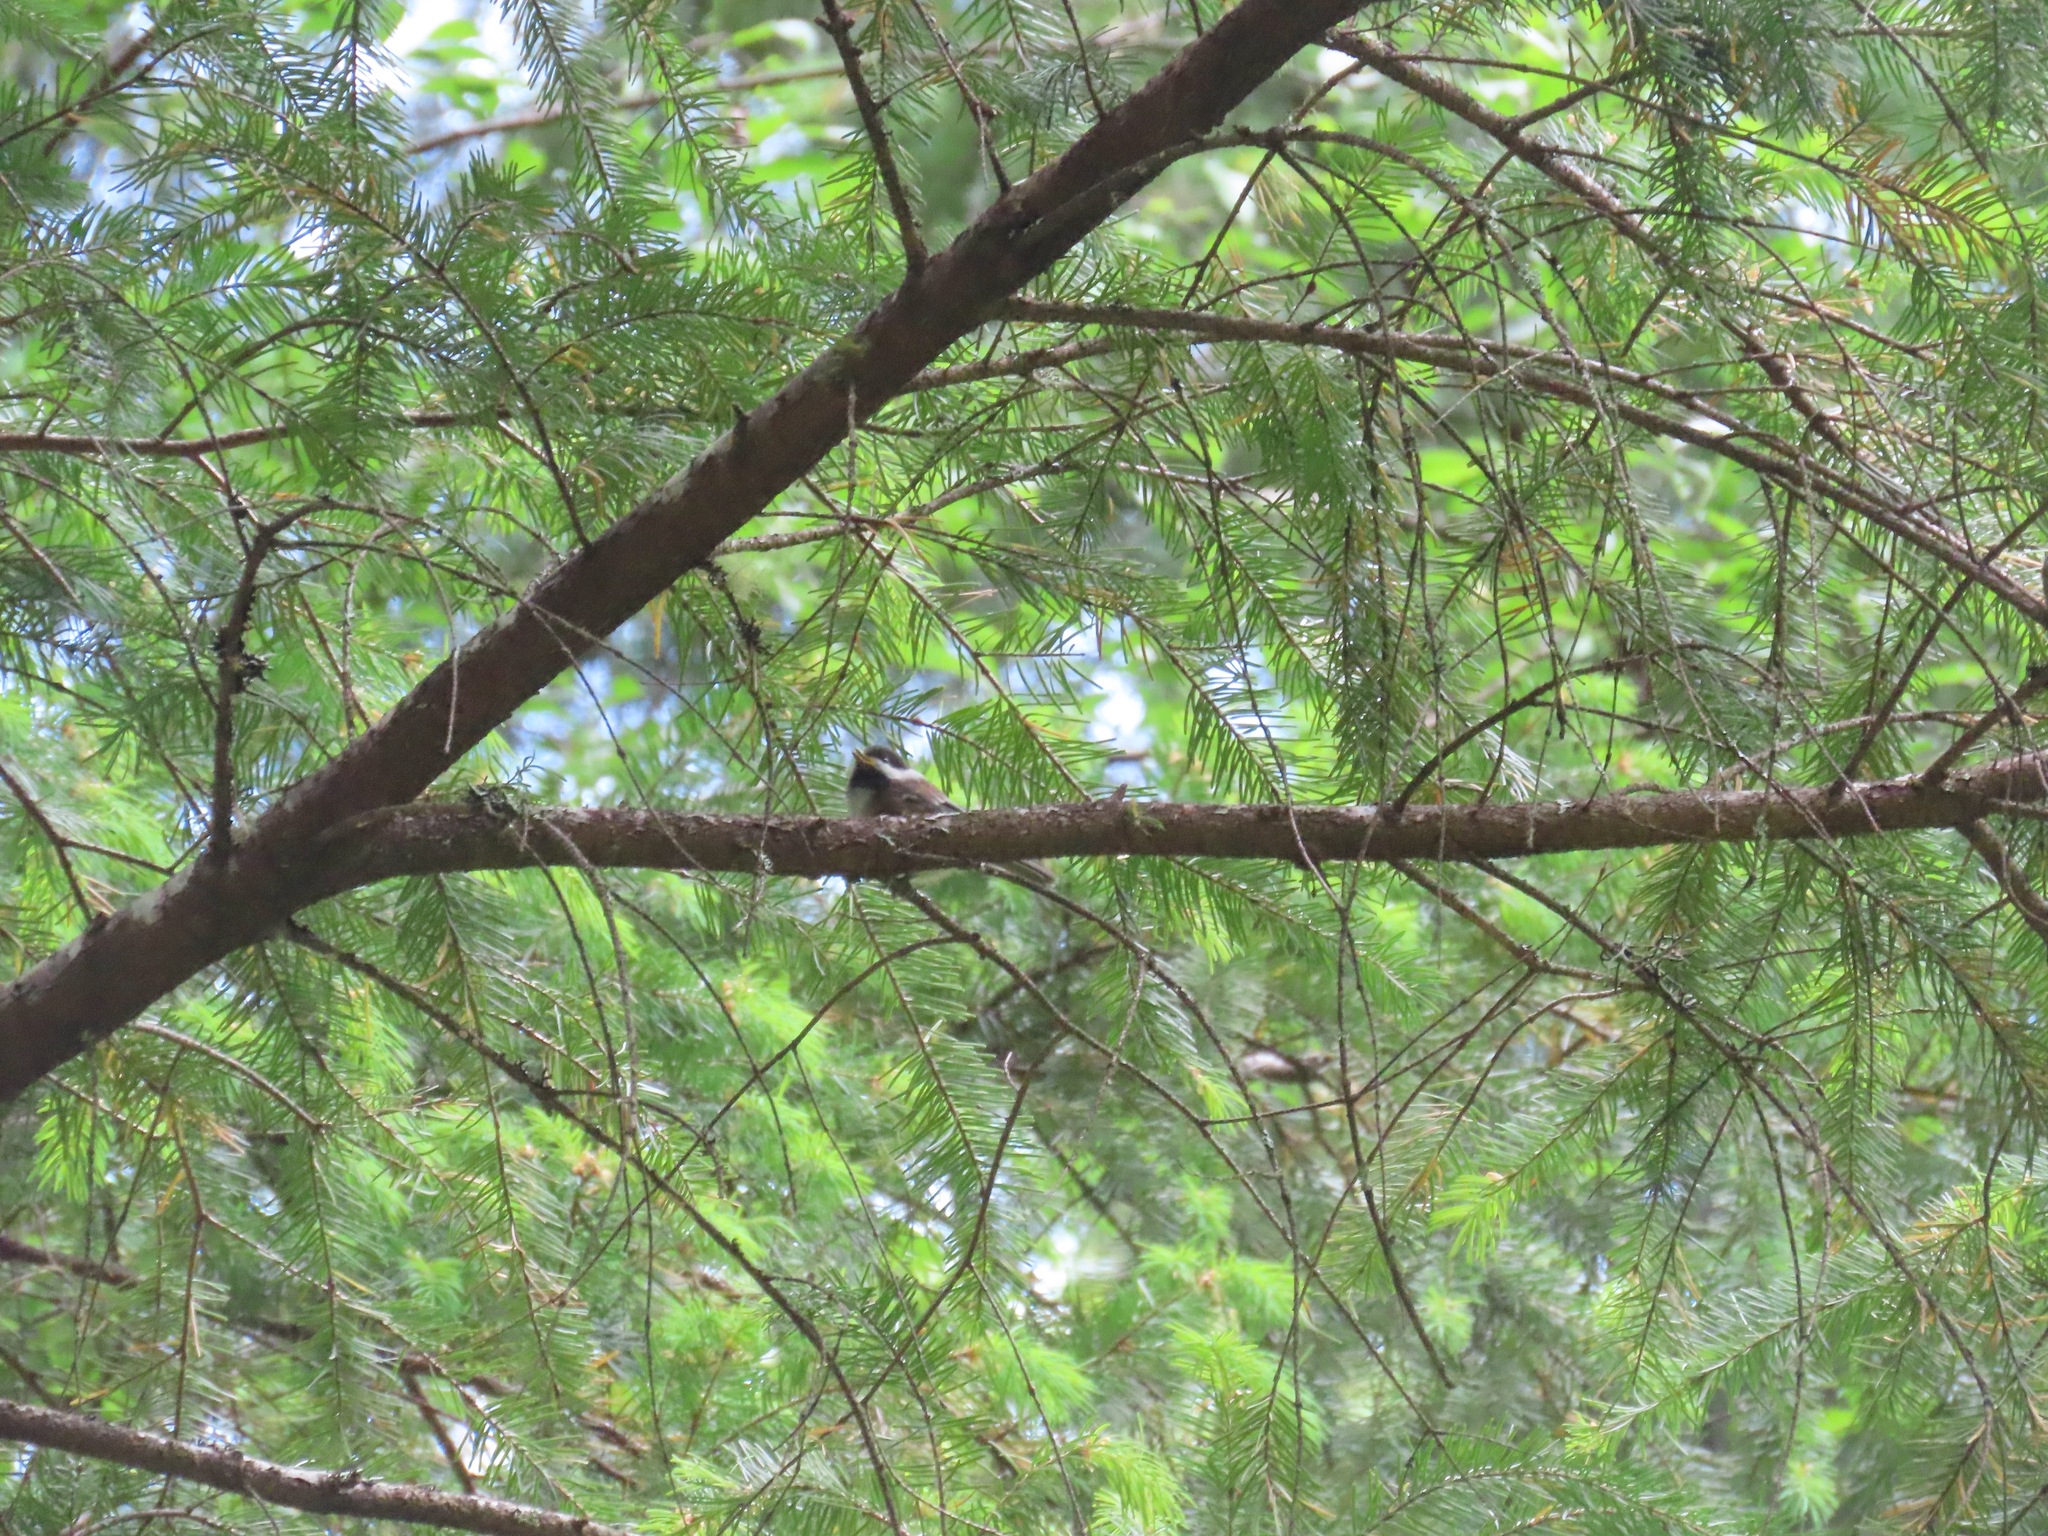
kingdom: Animalia
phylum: Chordata
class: Aves
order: Passeriformes
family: Paridae
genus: Poecile
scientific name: Poecile rufescens
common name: Chestnut-backed chickadee
